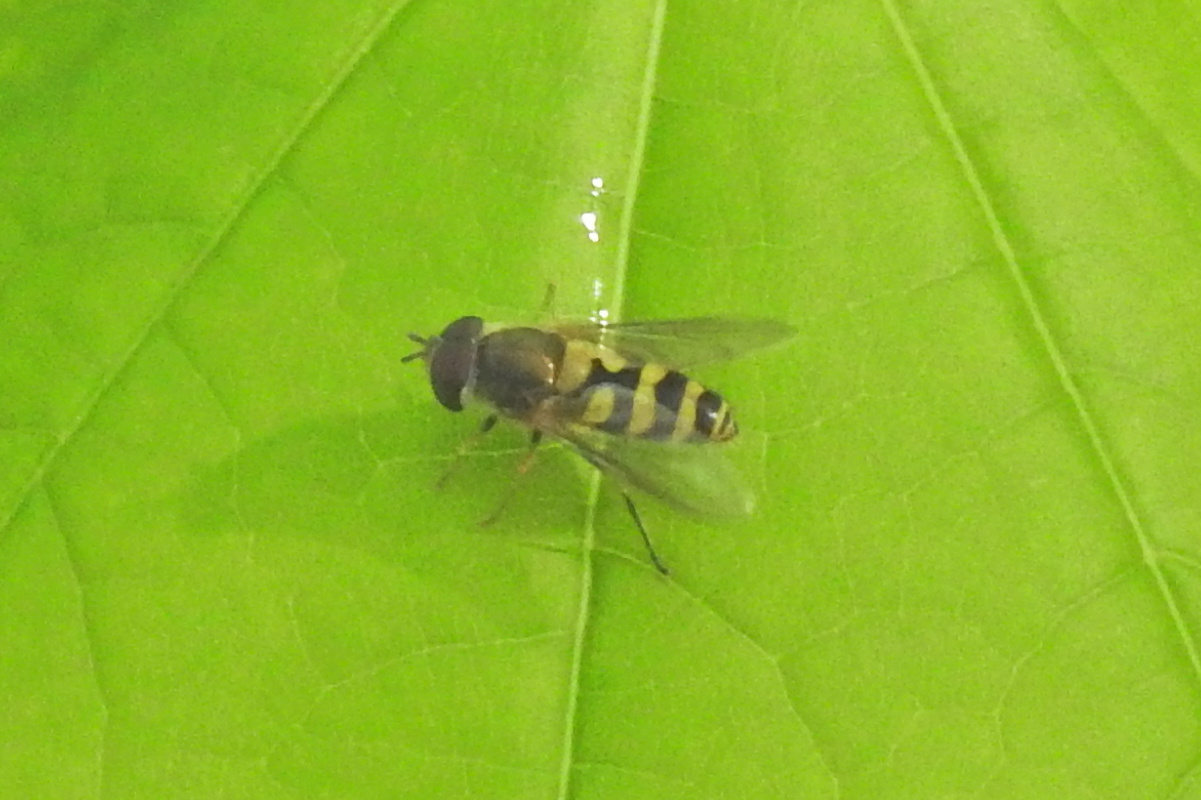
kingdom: Animalia
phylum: Arthropoda
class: Insecta
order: Diptera
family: Syrphidae
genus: Syrphus
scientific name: Syrphus
